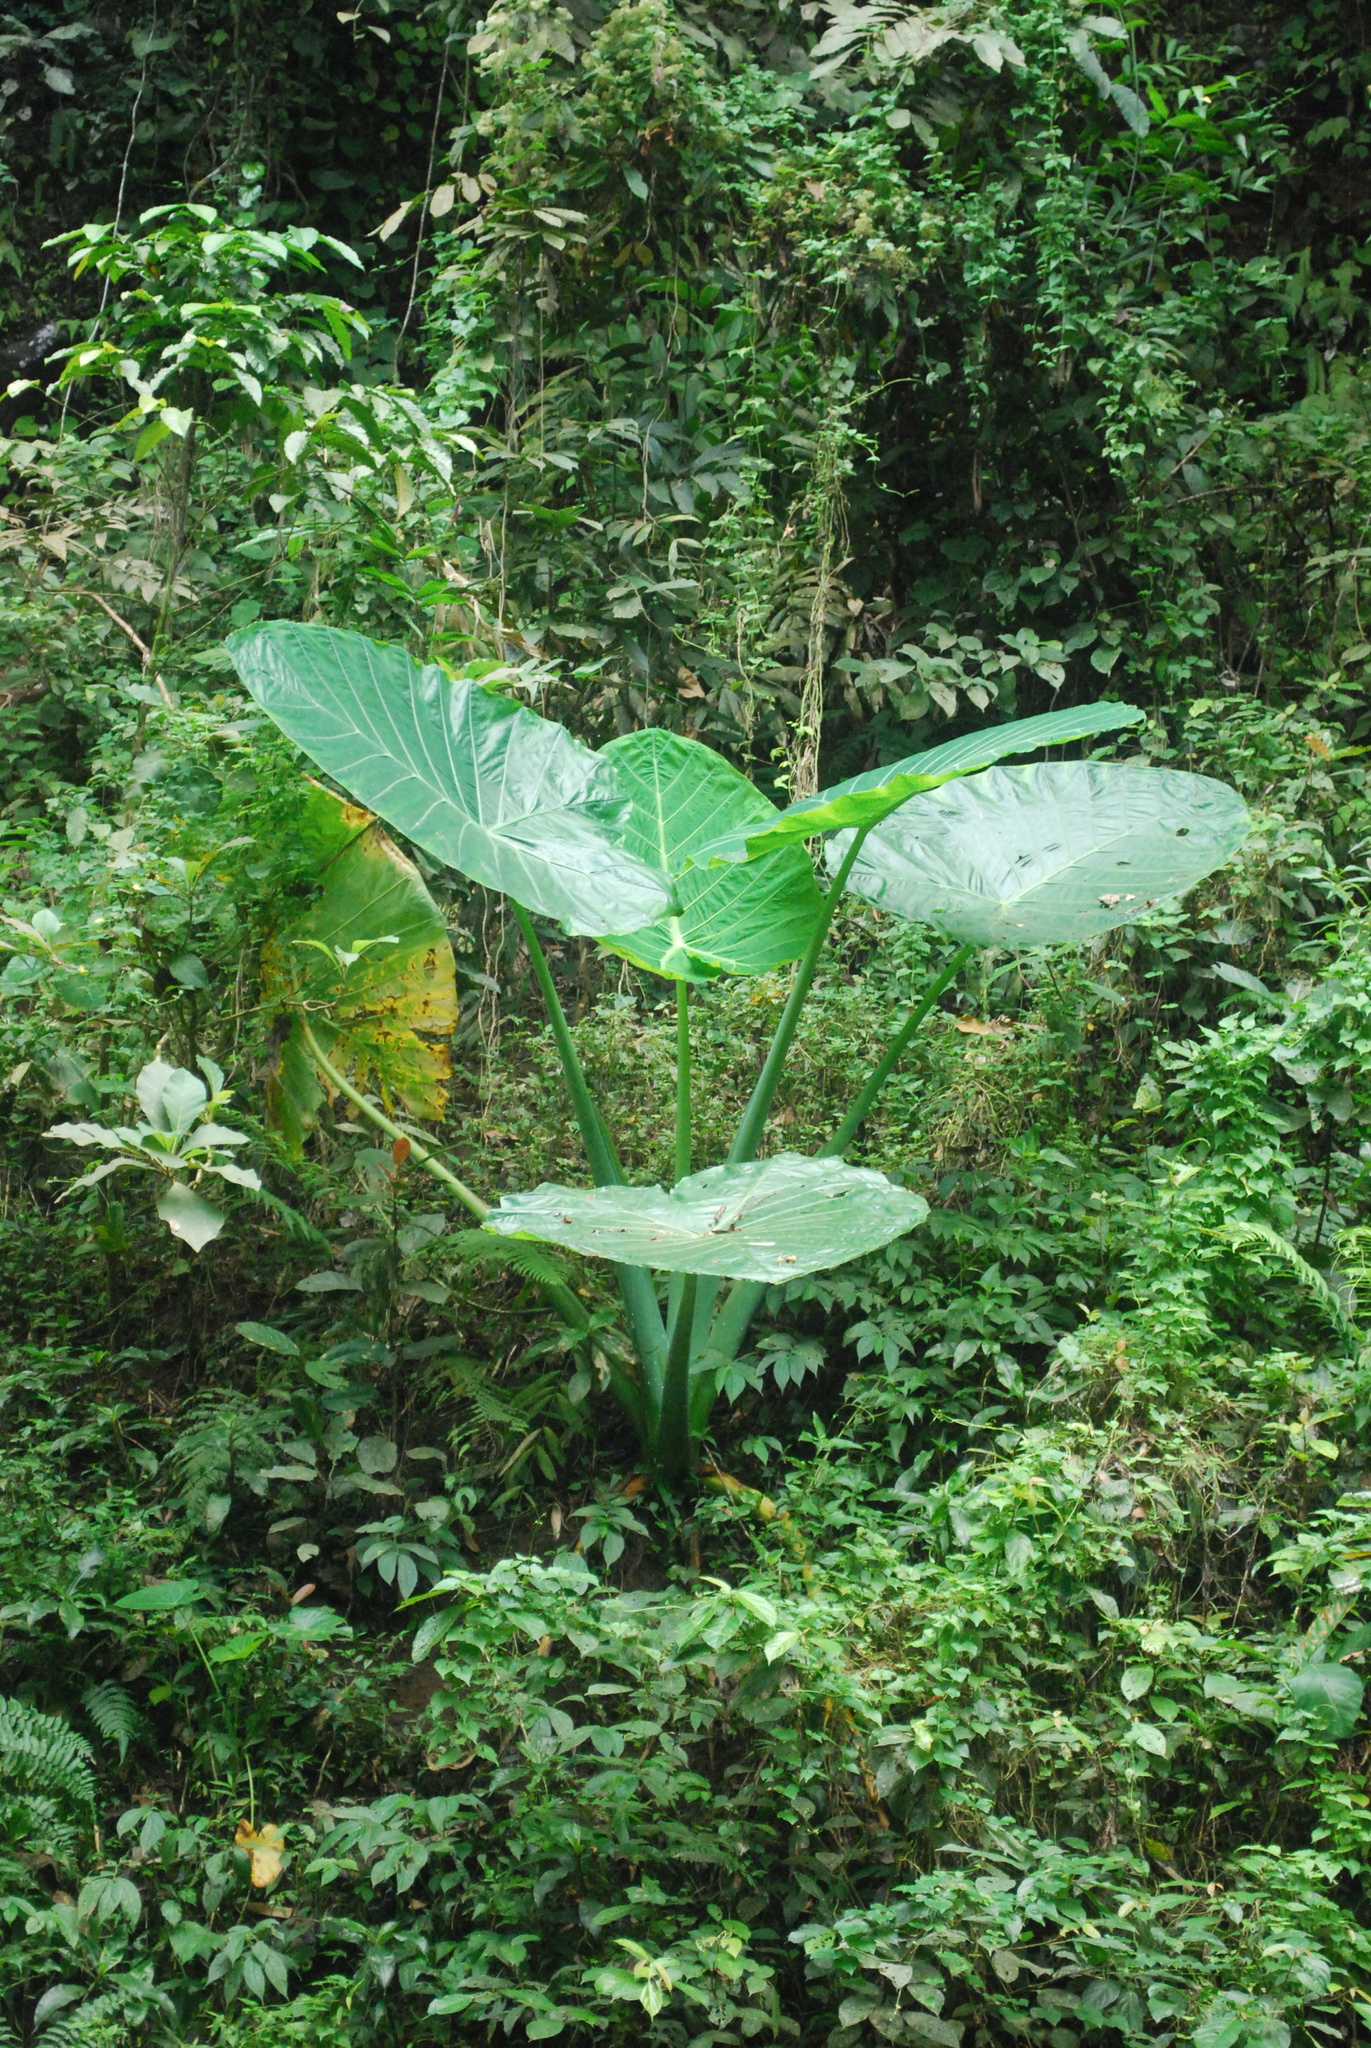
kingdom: Plantae
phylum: Tracheophyta
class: Liliopsida
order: Alismatales
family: Araceae
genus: Alocasia
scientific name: Alocasia macrorrhizos
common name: Giant taro
